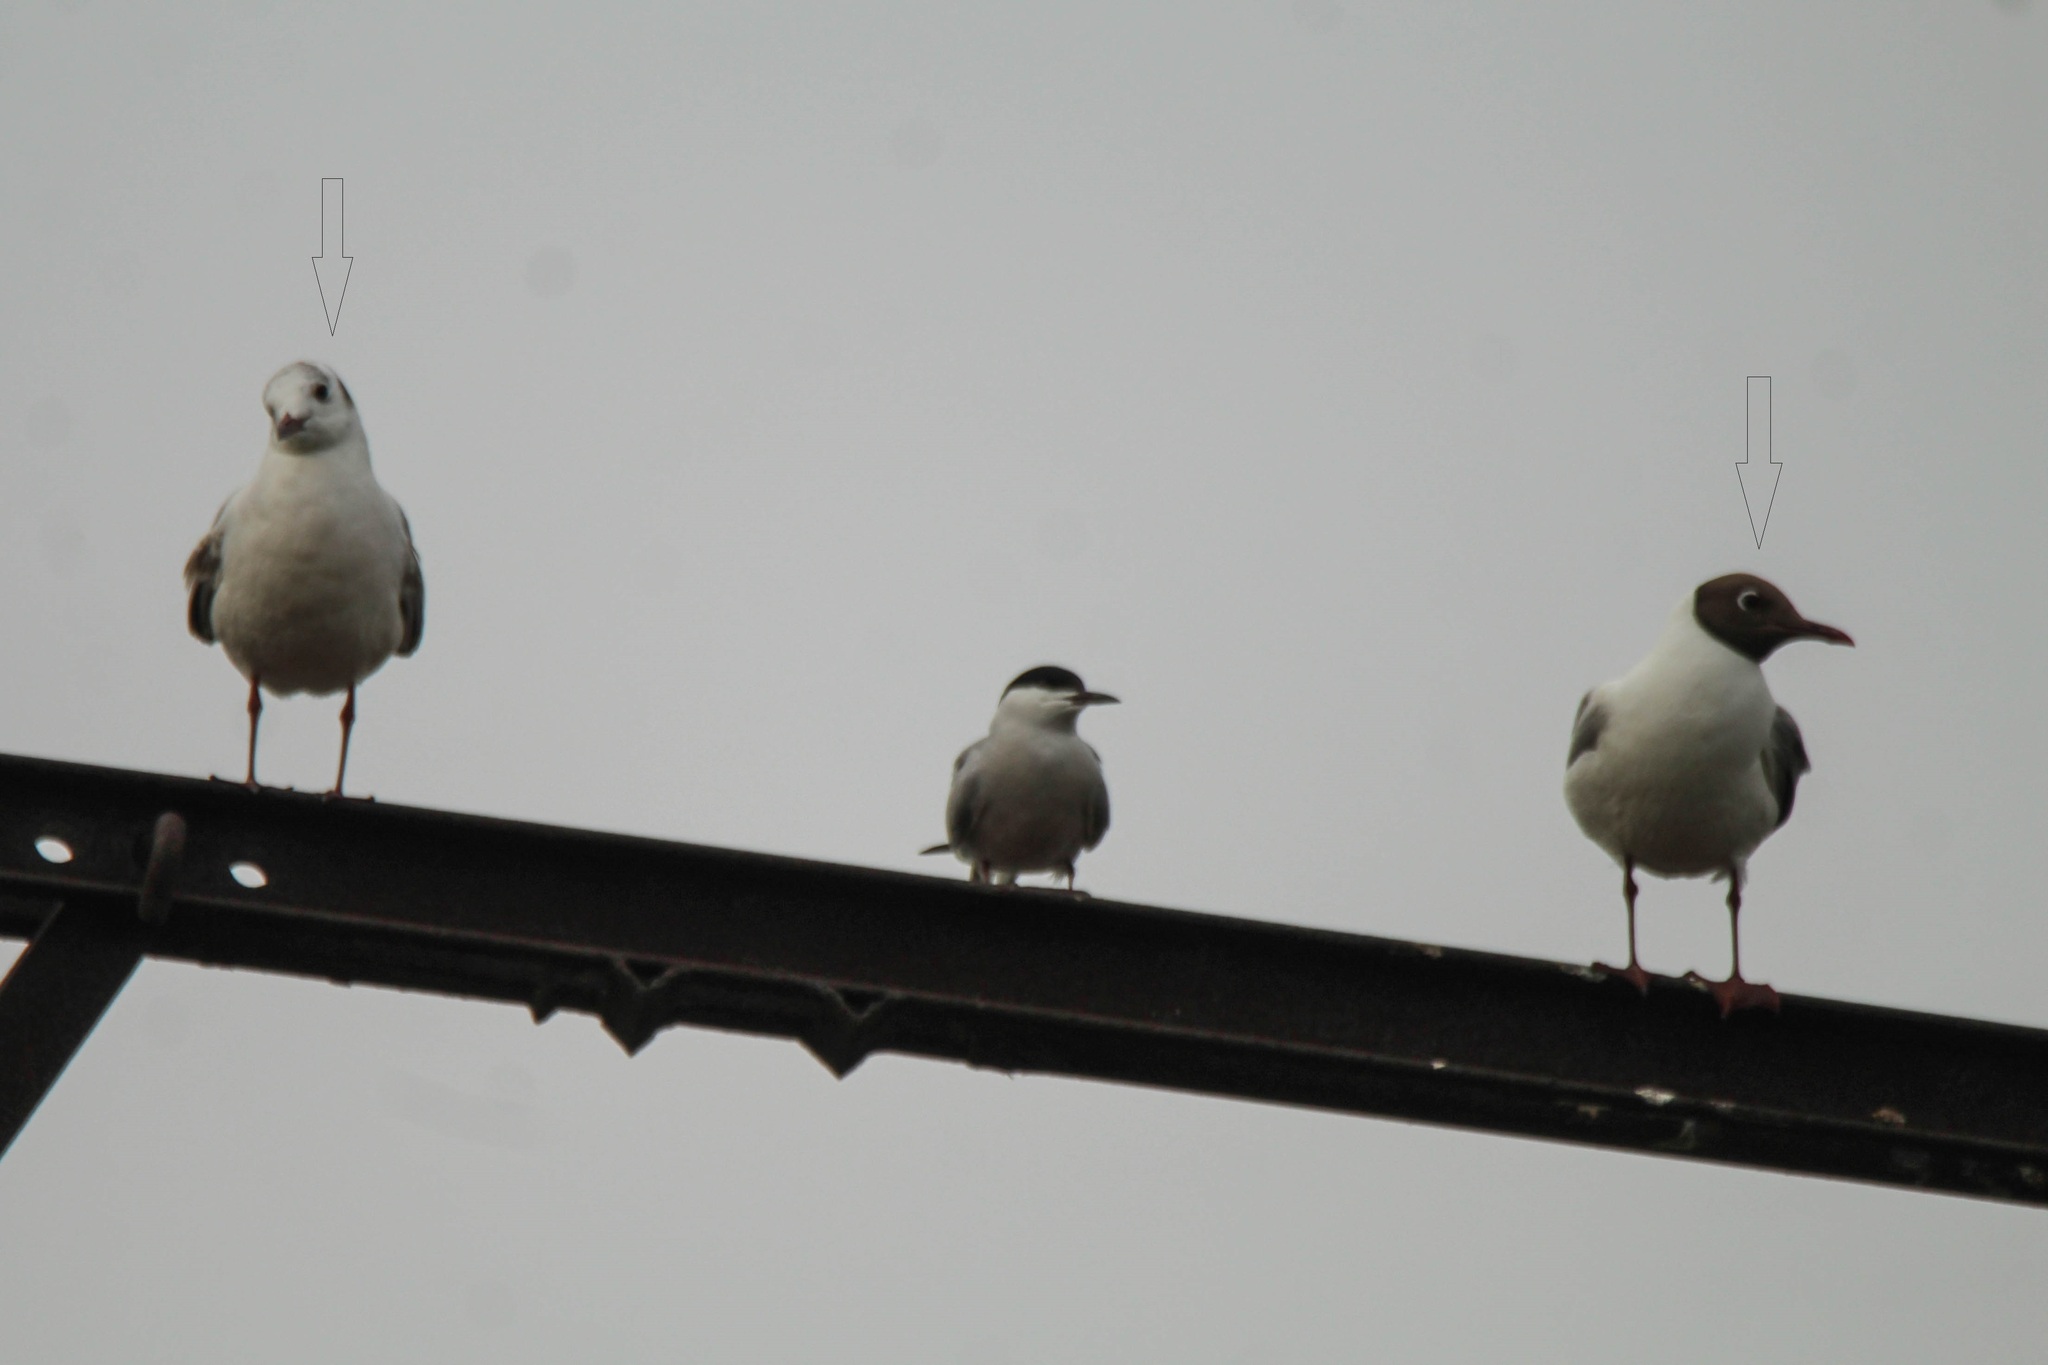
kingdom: Animalia
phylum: Chordata
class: Aves
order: Charadriiformes
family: Laridae
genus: Chroicocephalus
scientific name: Chroicocephalus ridibundus
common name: Black-headed gull
